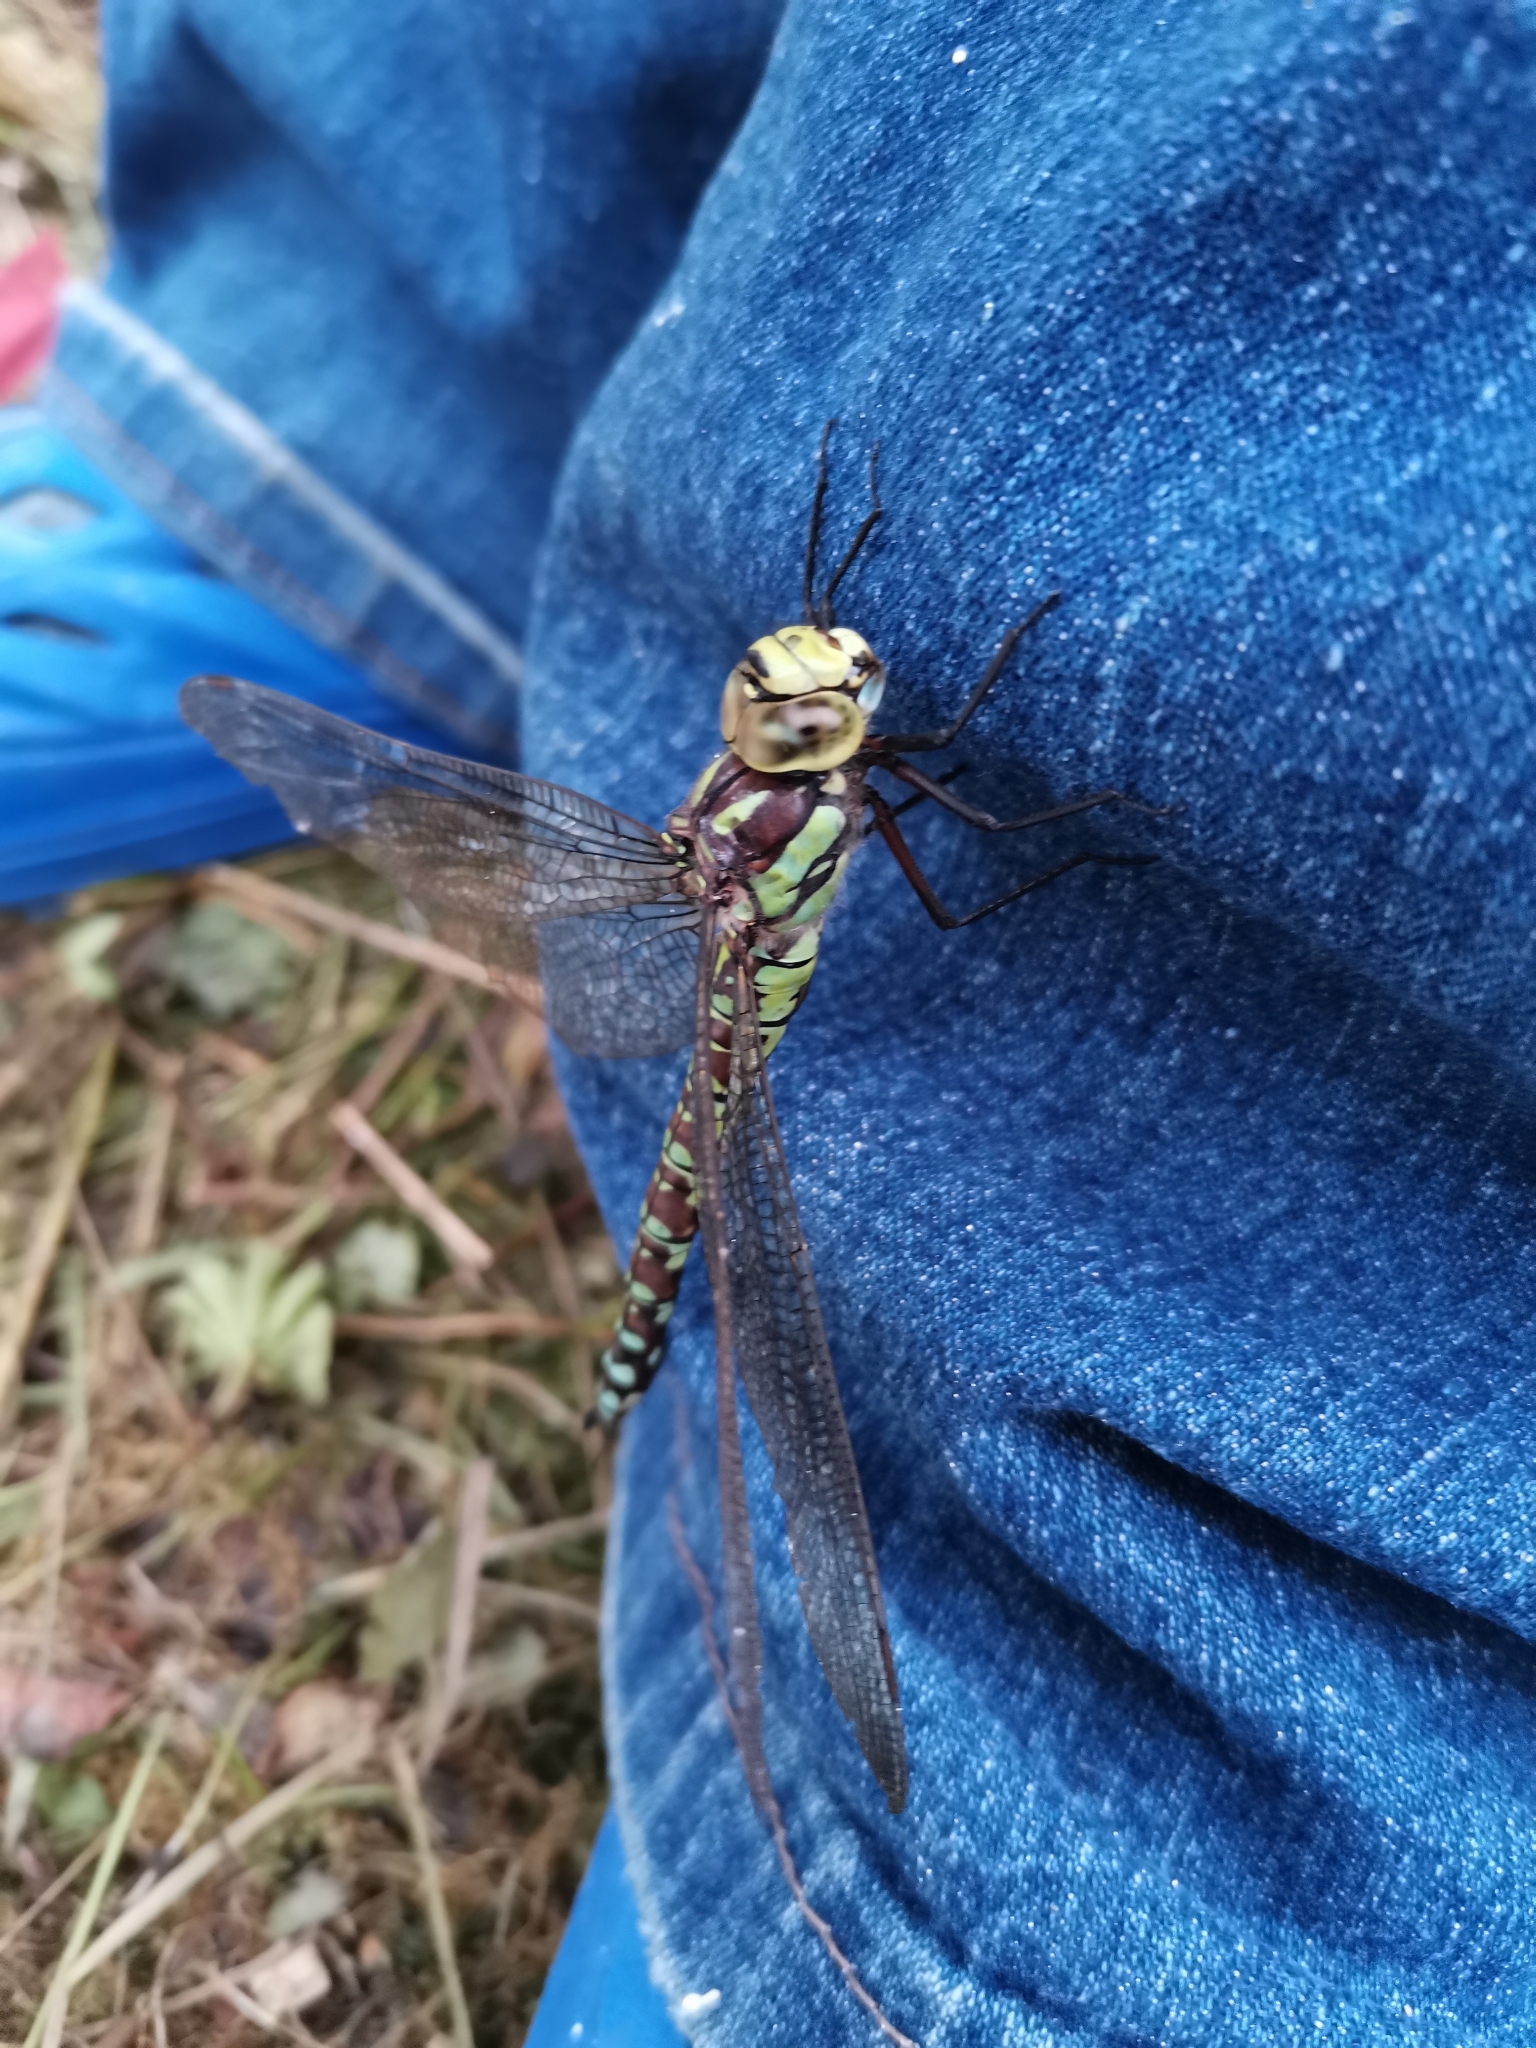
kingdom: Animalia
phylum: Arthropoda
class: Insecta
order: Odonata
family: Aeshnidae
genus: Aeshna
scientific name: Aeshna cyanea
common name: Southern hawker
